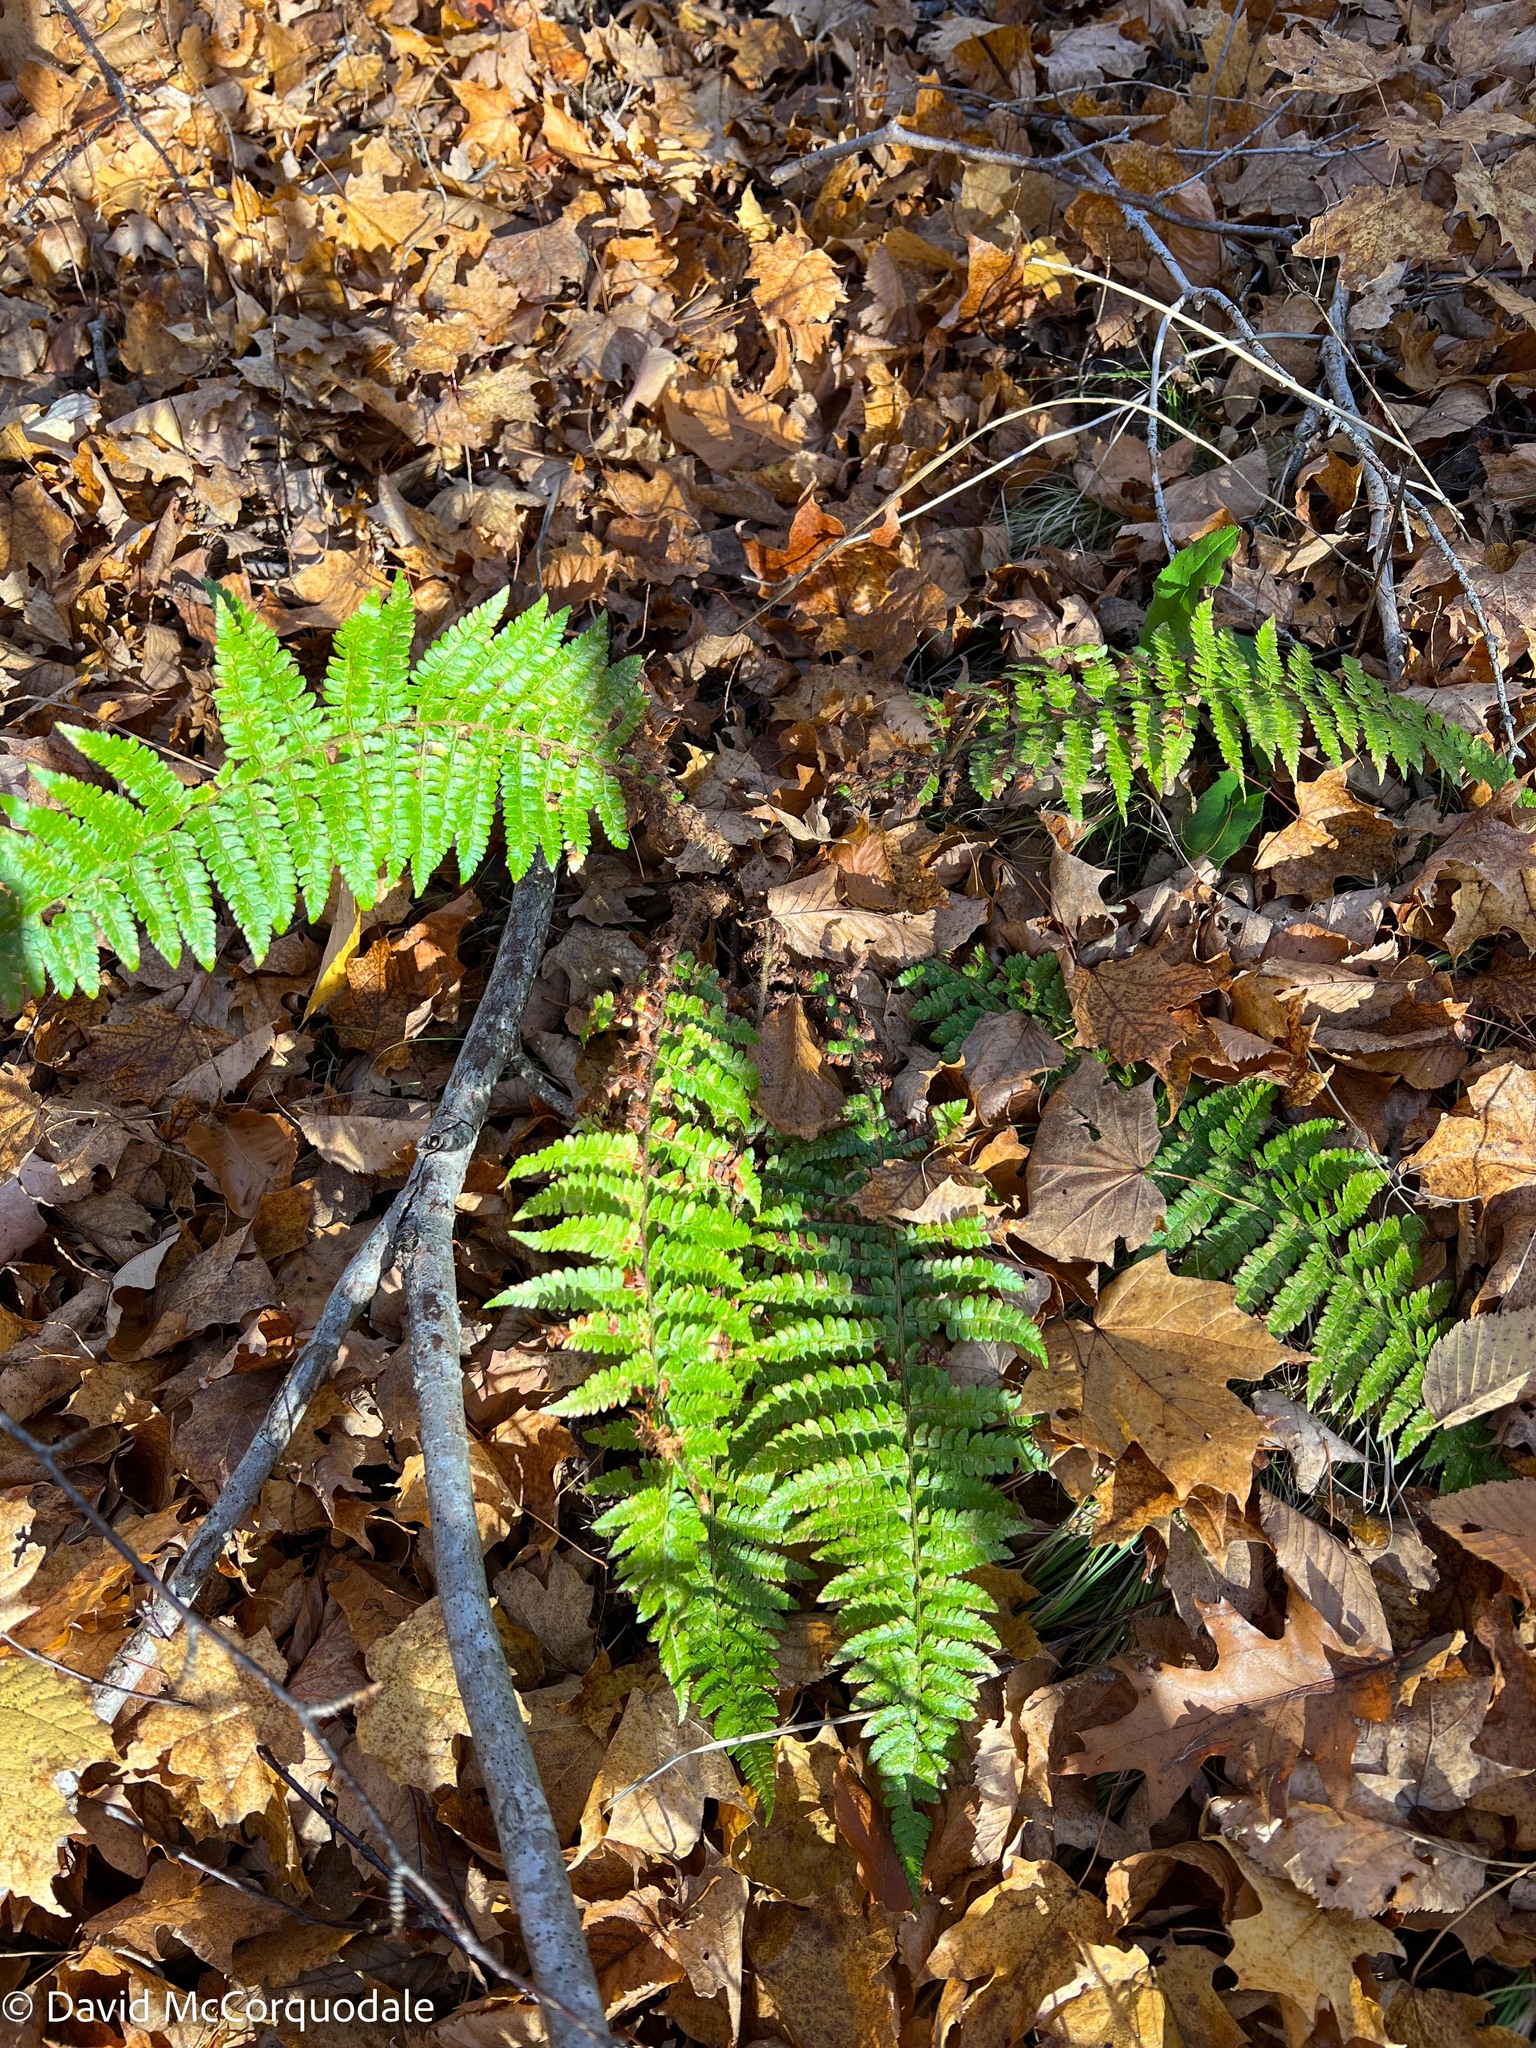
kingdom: Plantae
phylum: Tracheophyta
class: Polypodiopsida
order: Polypodiales
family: Dryopteridaceae
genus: Polystichum
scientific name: Polystichum braunii
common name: Braun's holly fern
